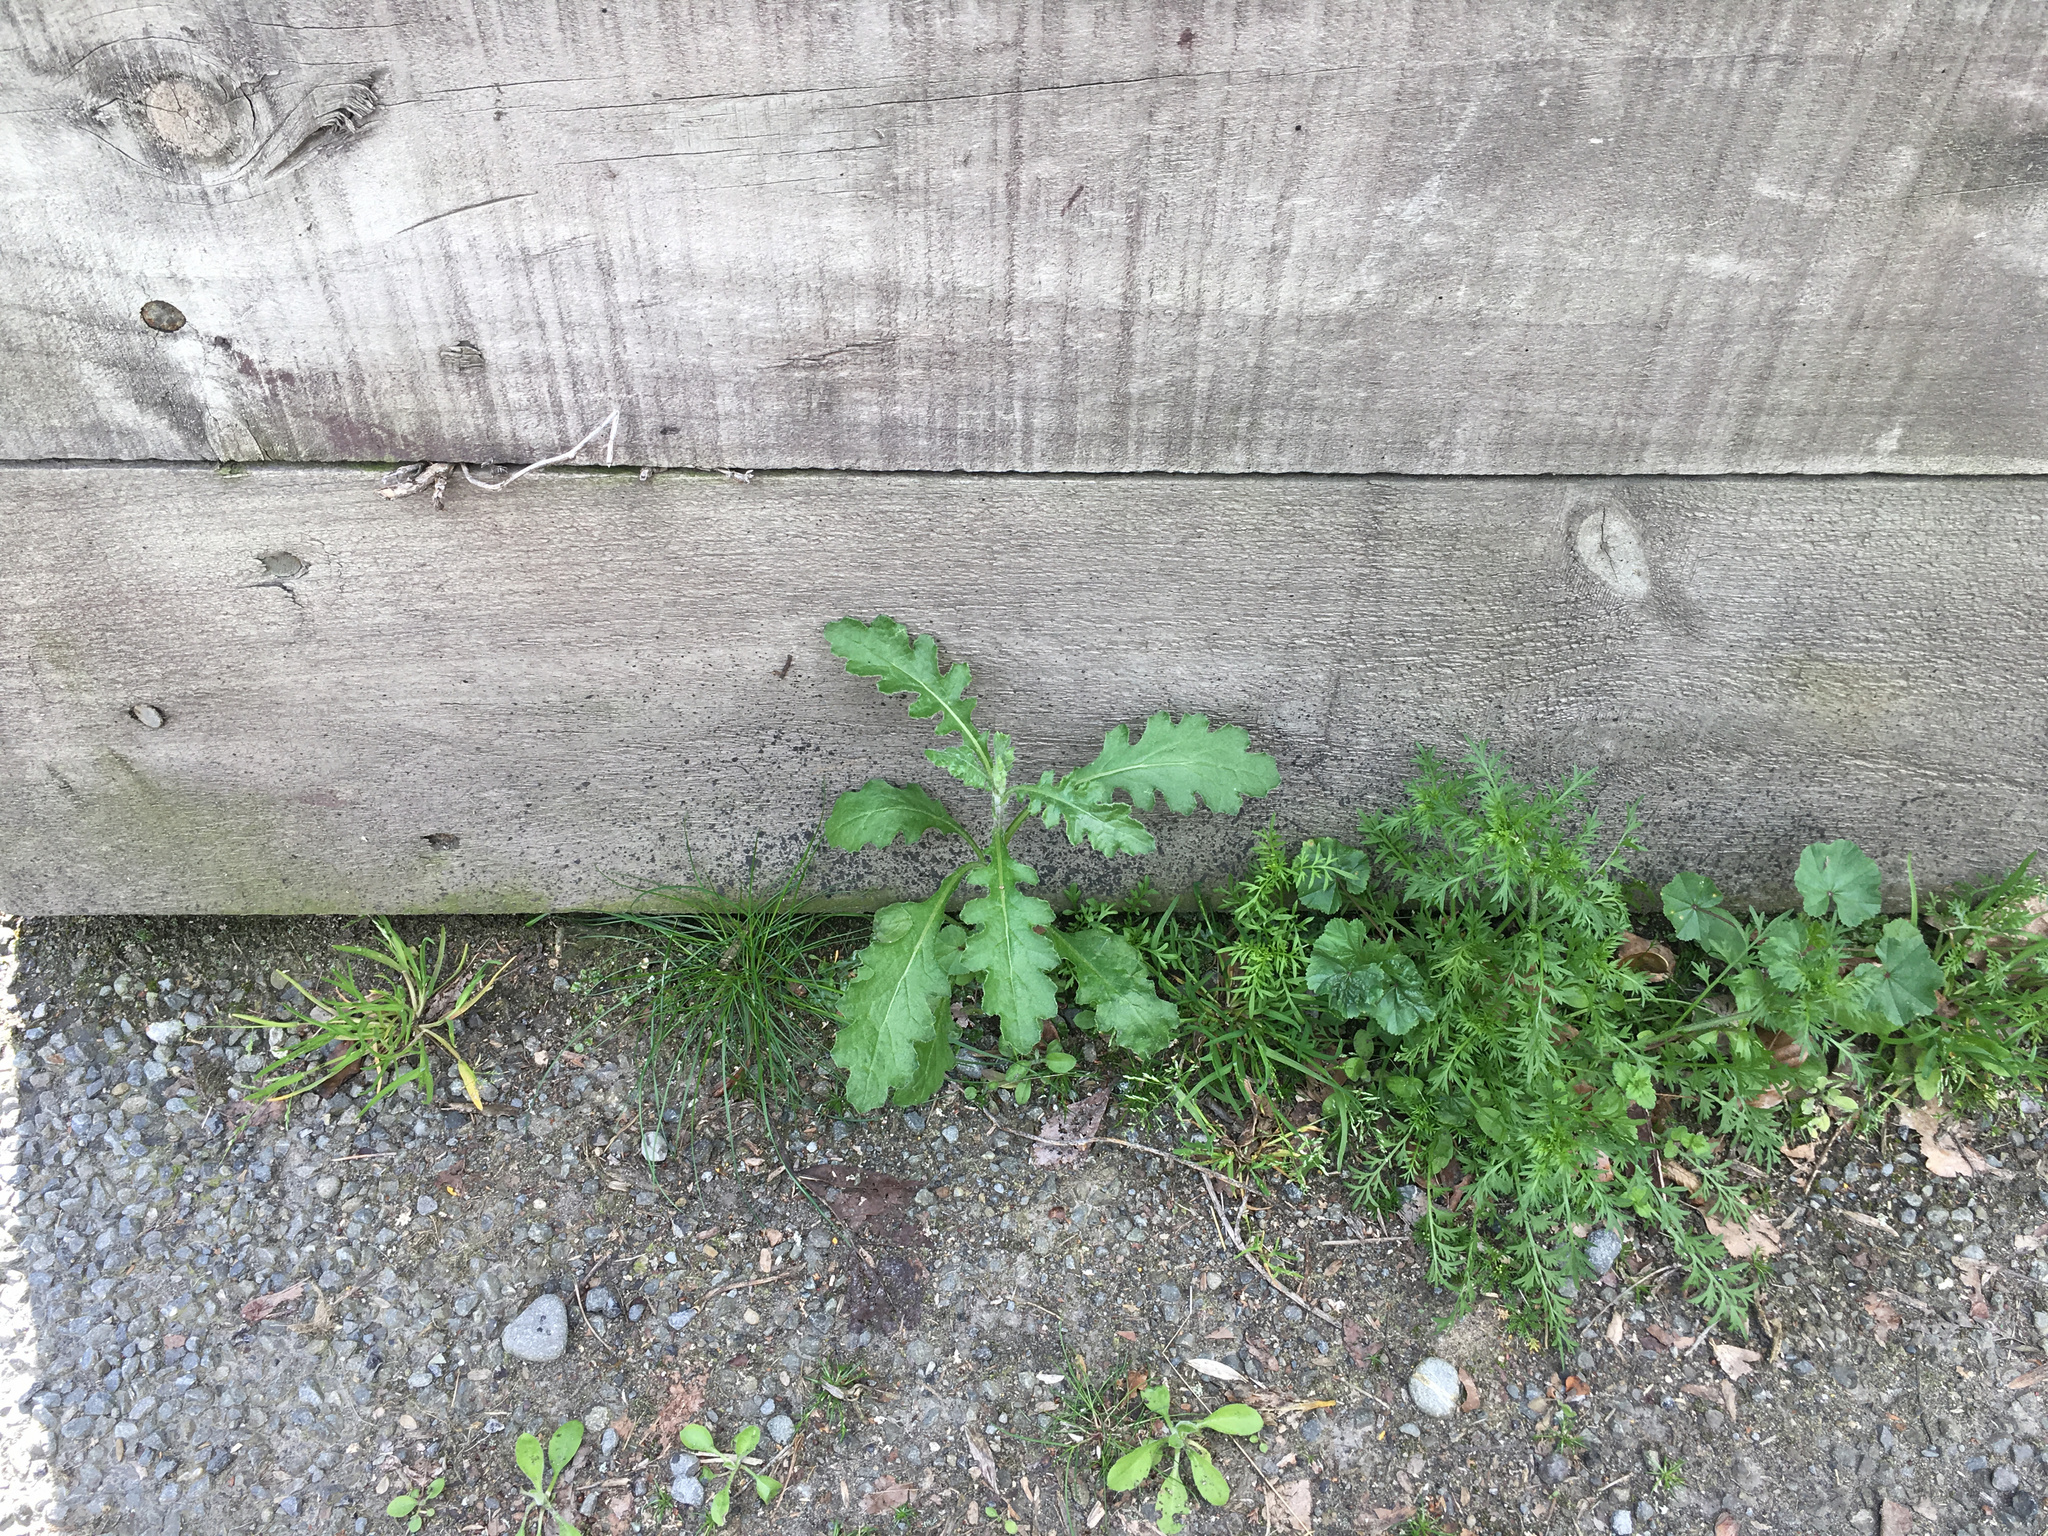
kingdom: Plantae
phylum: Tracheophyta
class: Magnoliopsida
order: Asterales
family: Asteraceae
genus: Senecio
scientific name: Senecio glomeratus
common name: Cutleaf burnweed
